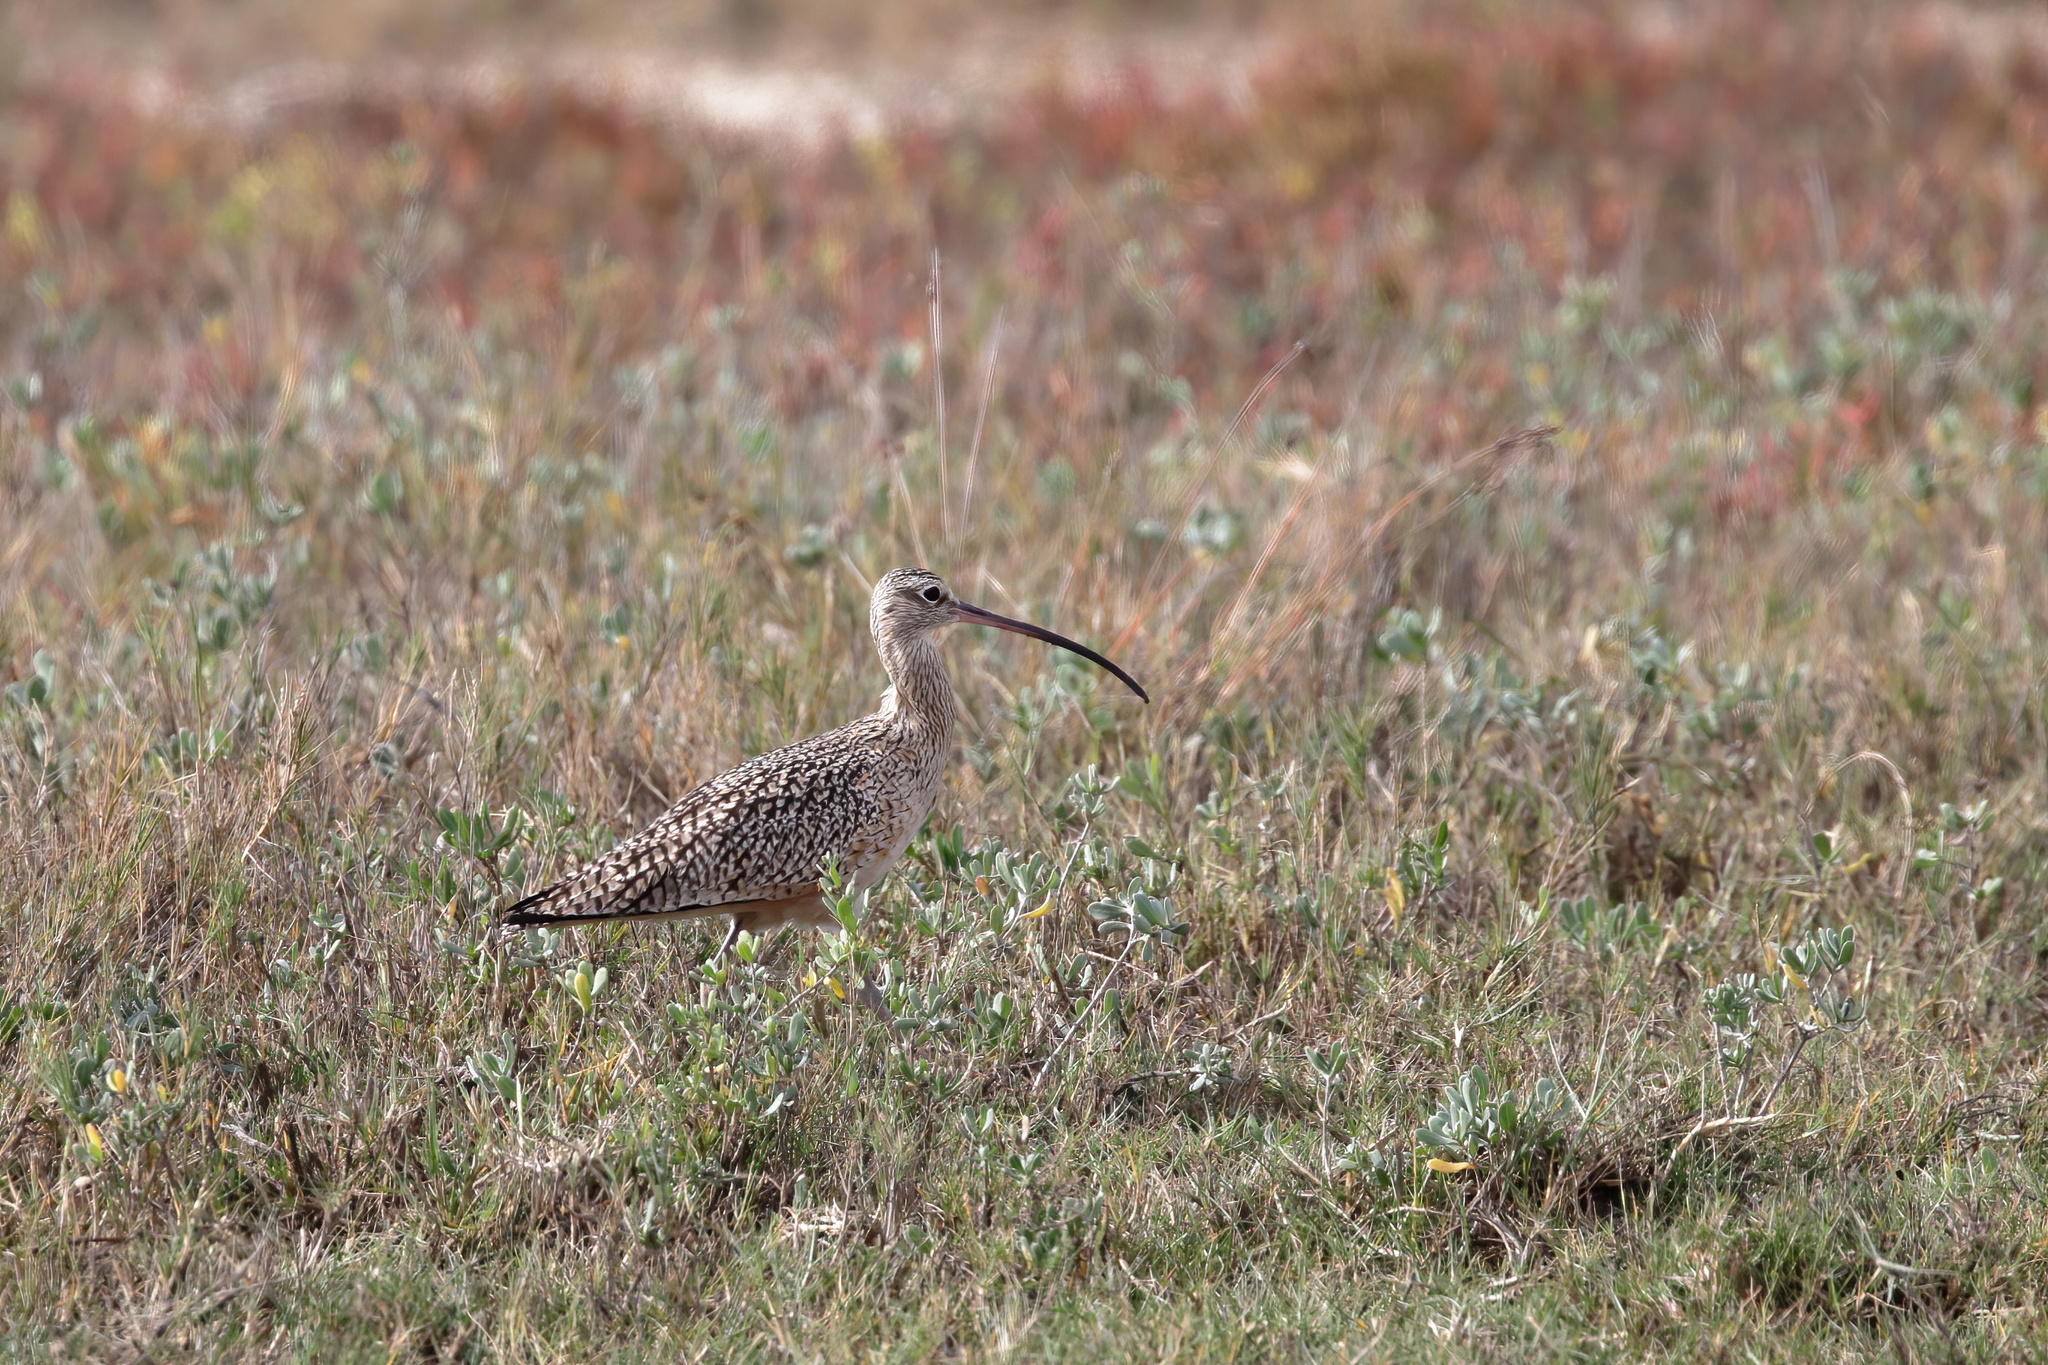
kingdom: Animalia
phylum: Chordata
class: Aves
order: Charadriiformes
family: Scolopacidae
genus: Numenius
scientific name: Numenius americanus
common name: Long-billed curlew
